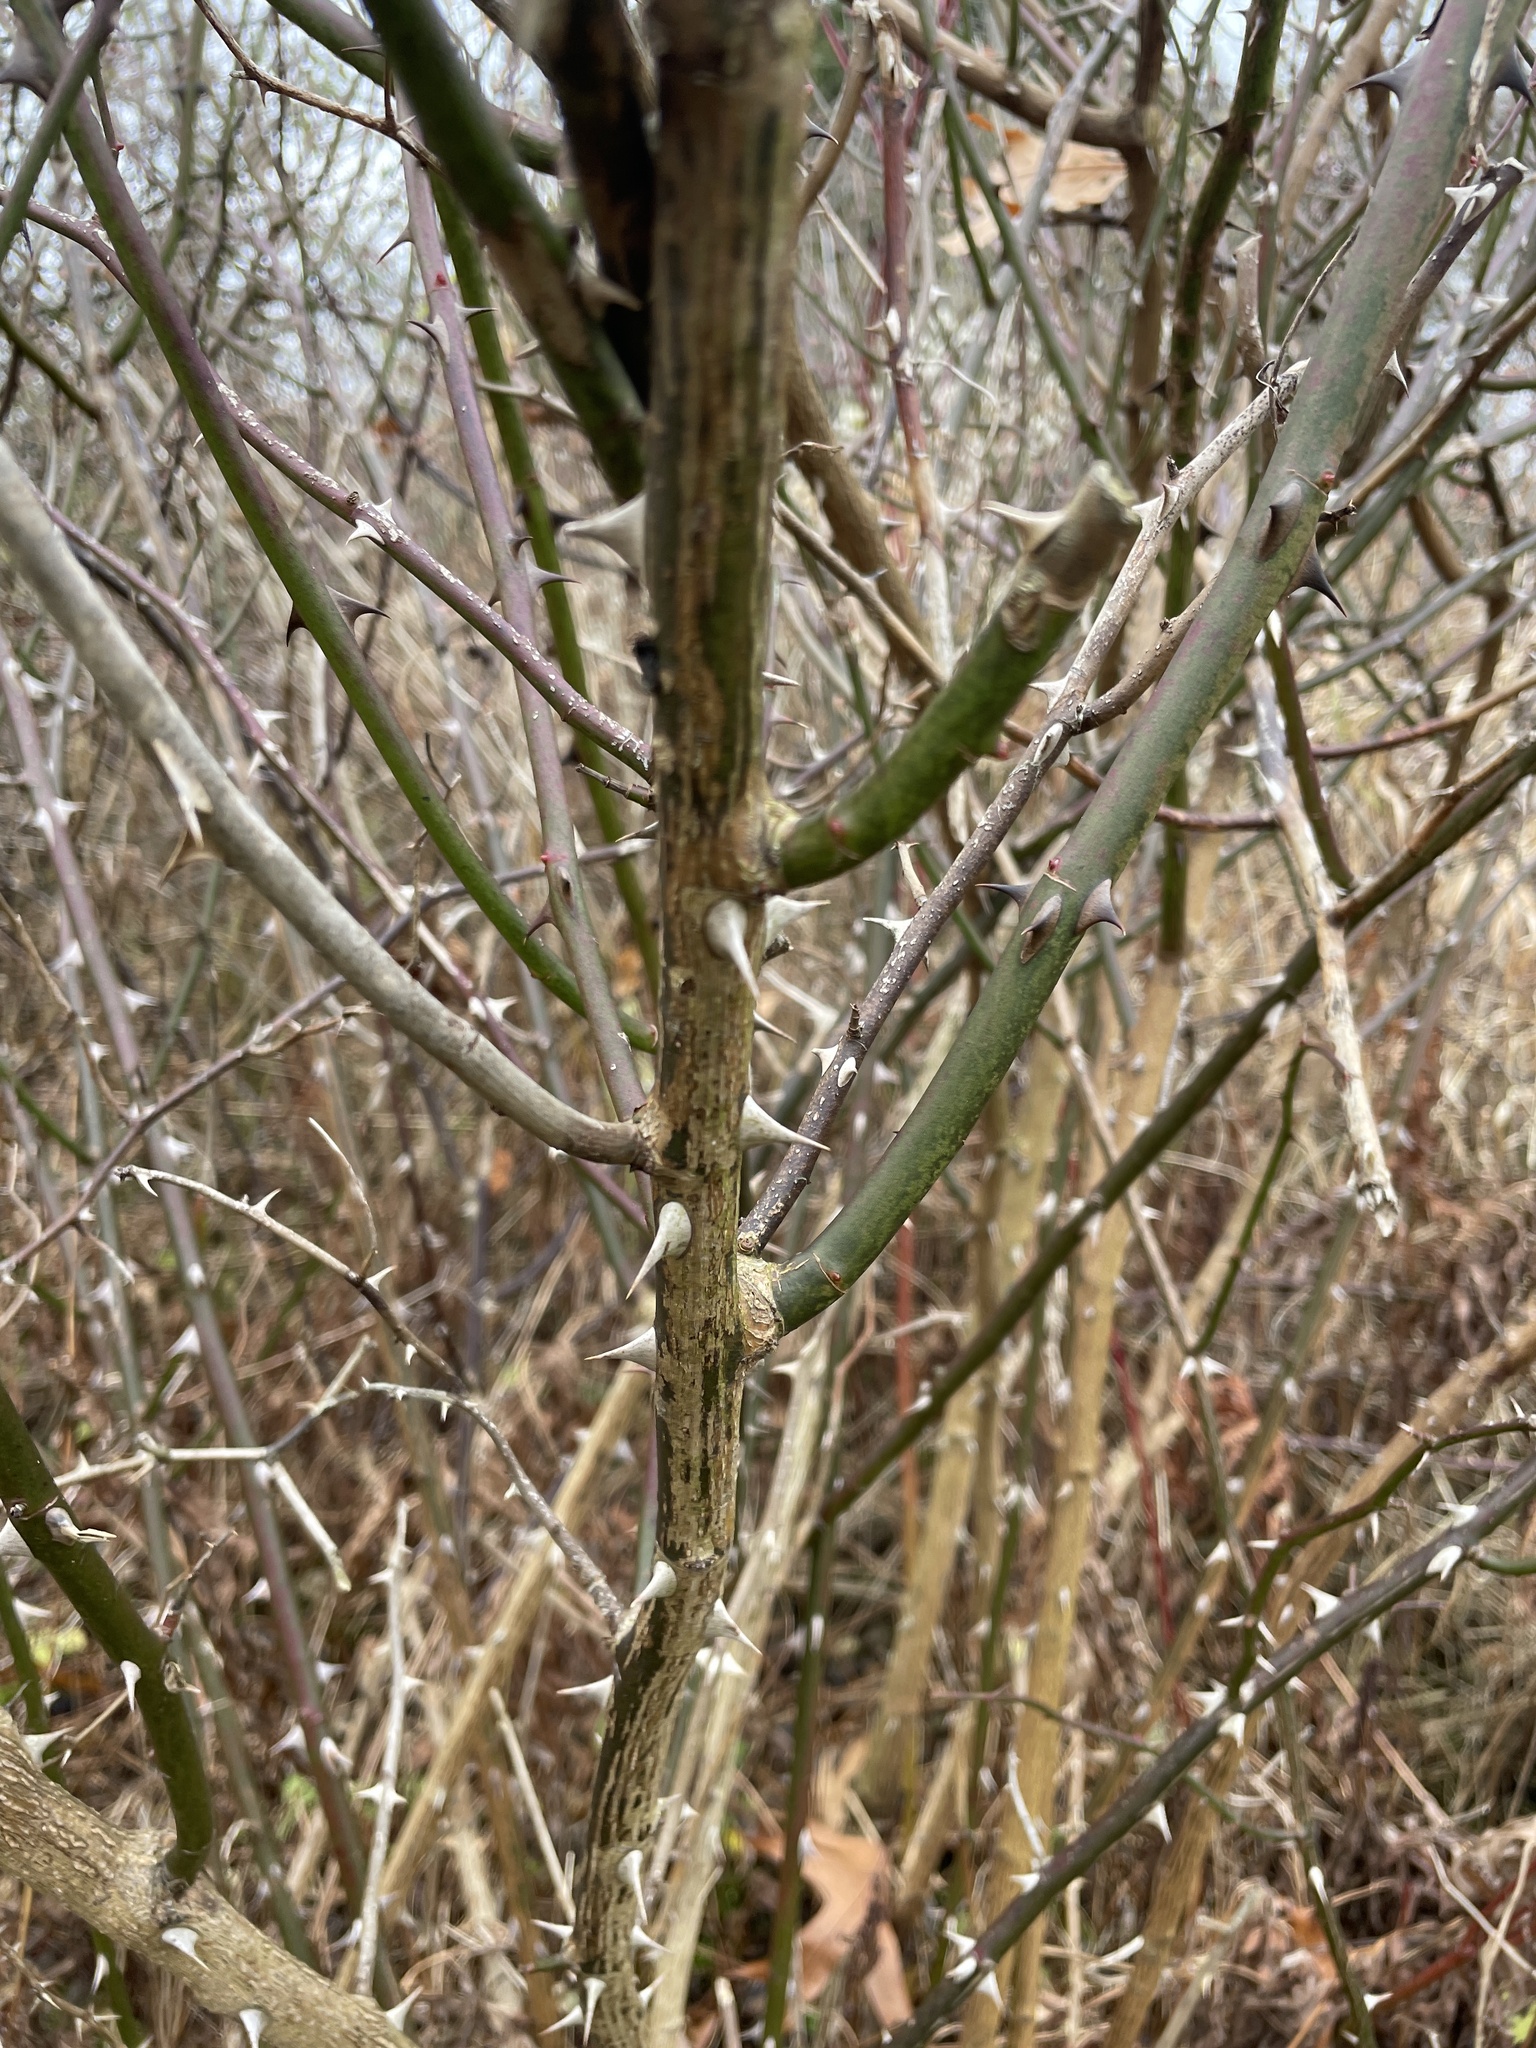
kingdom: Plantae
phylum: Tracheophyta
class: Magnoliopsida
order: Rosales
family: Rosaceae
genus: Rosa
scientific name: Rosa multiflora
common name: Multiflora rose
